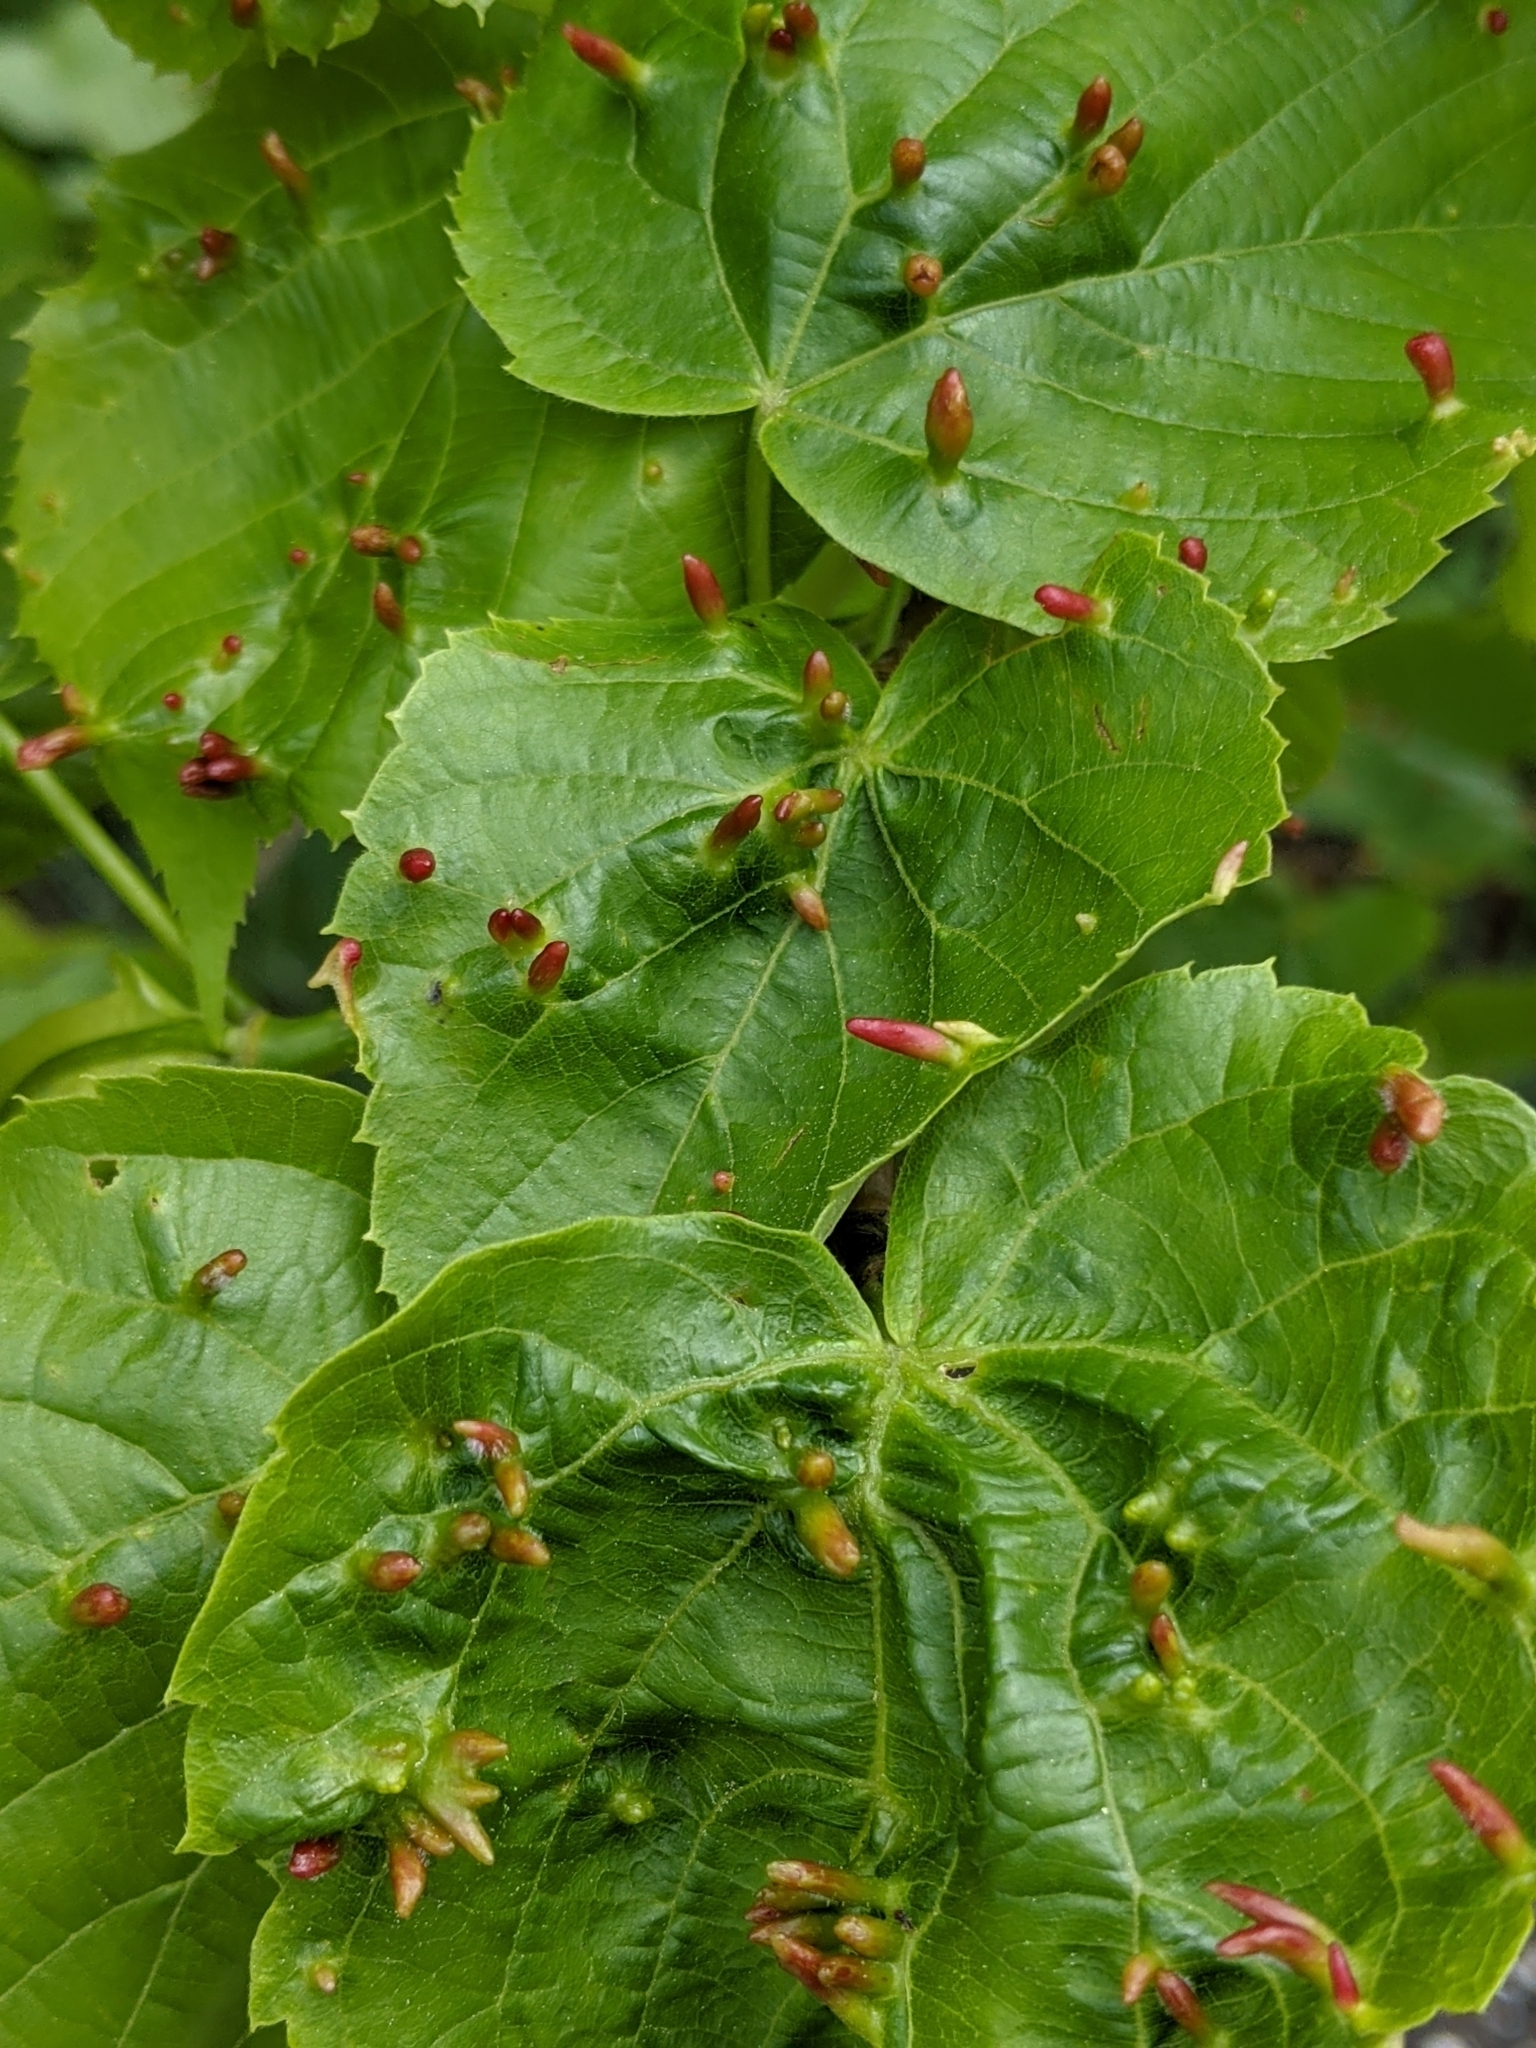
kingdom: Animalia
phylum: Arthropoda
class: Arachnida
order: Trombidiformes
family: Eriophyidae
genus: Eriophyes
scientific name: Eriophyes tiliae
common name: Red nail gall mite
